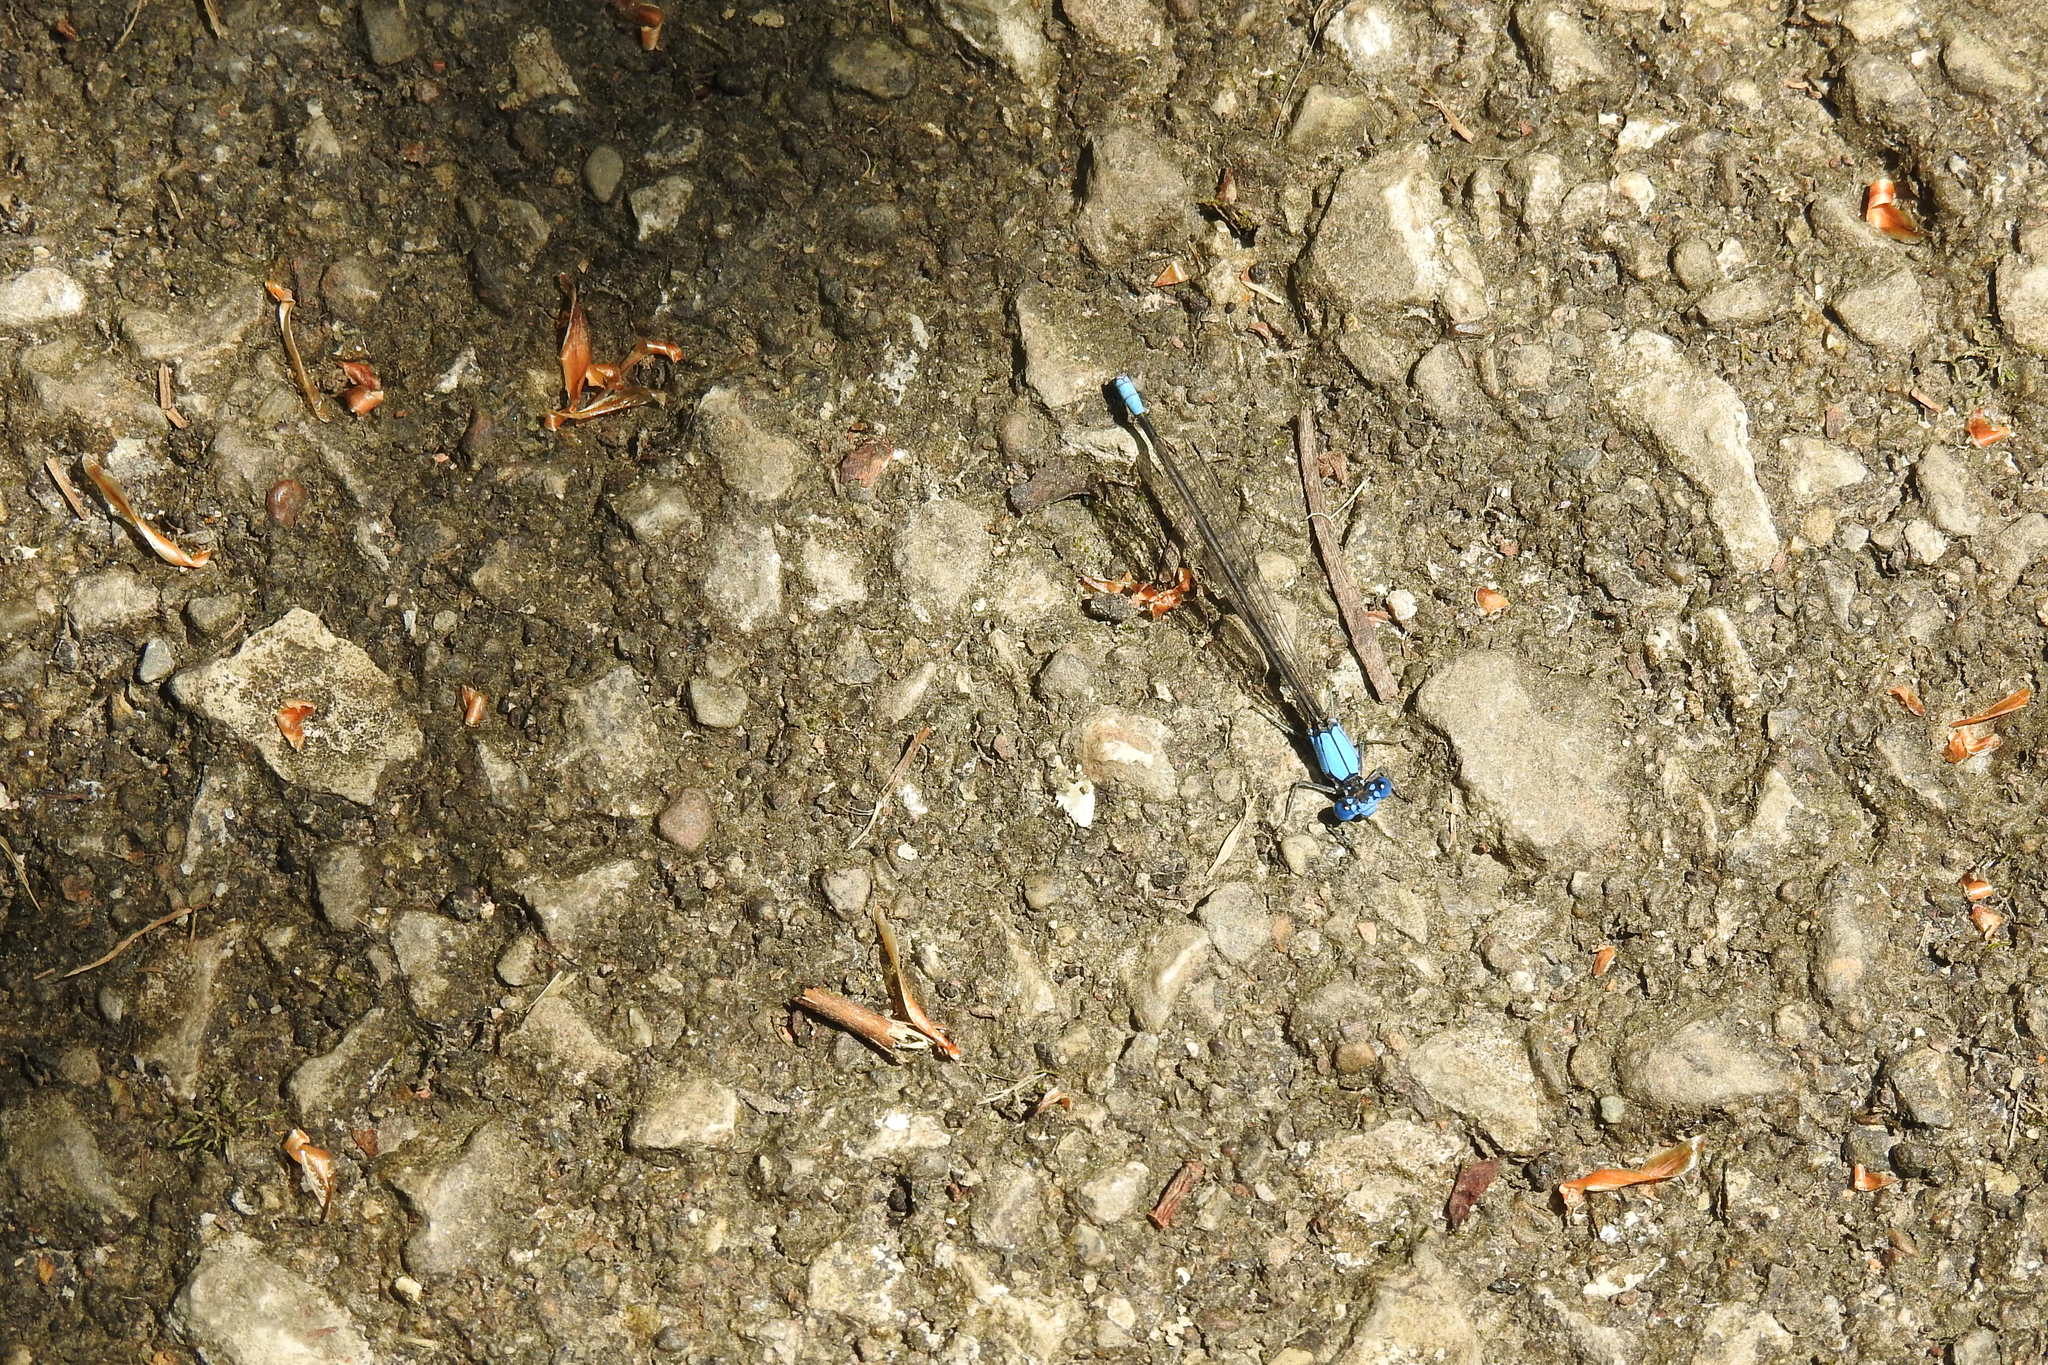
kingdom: Animalia
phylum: Arthropoda
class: Insecta
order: Odonata
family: Coenagrionidae
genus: Argia
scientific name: Argia apicalis
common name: Blue-fronted dancer
